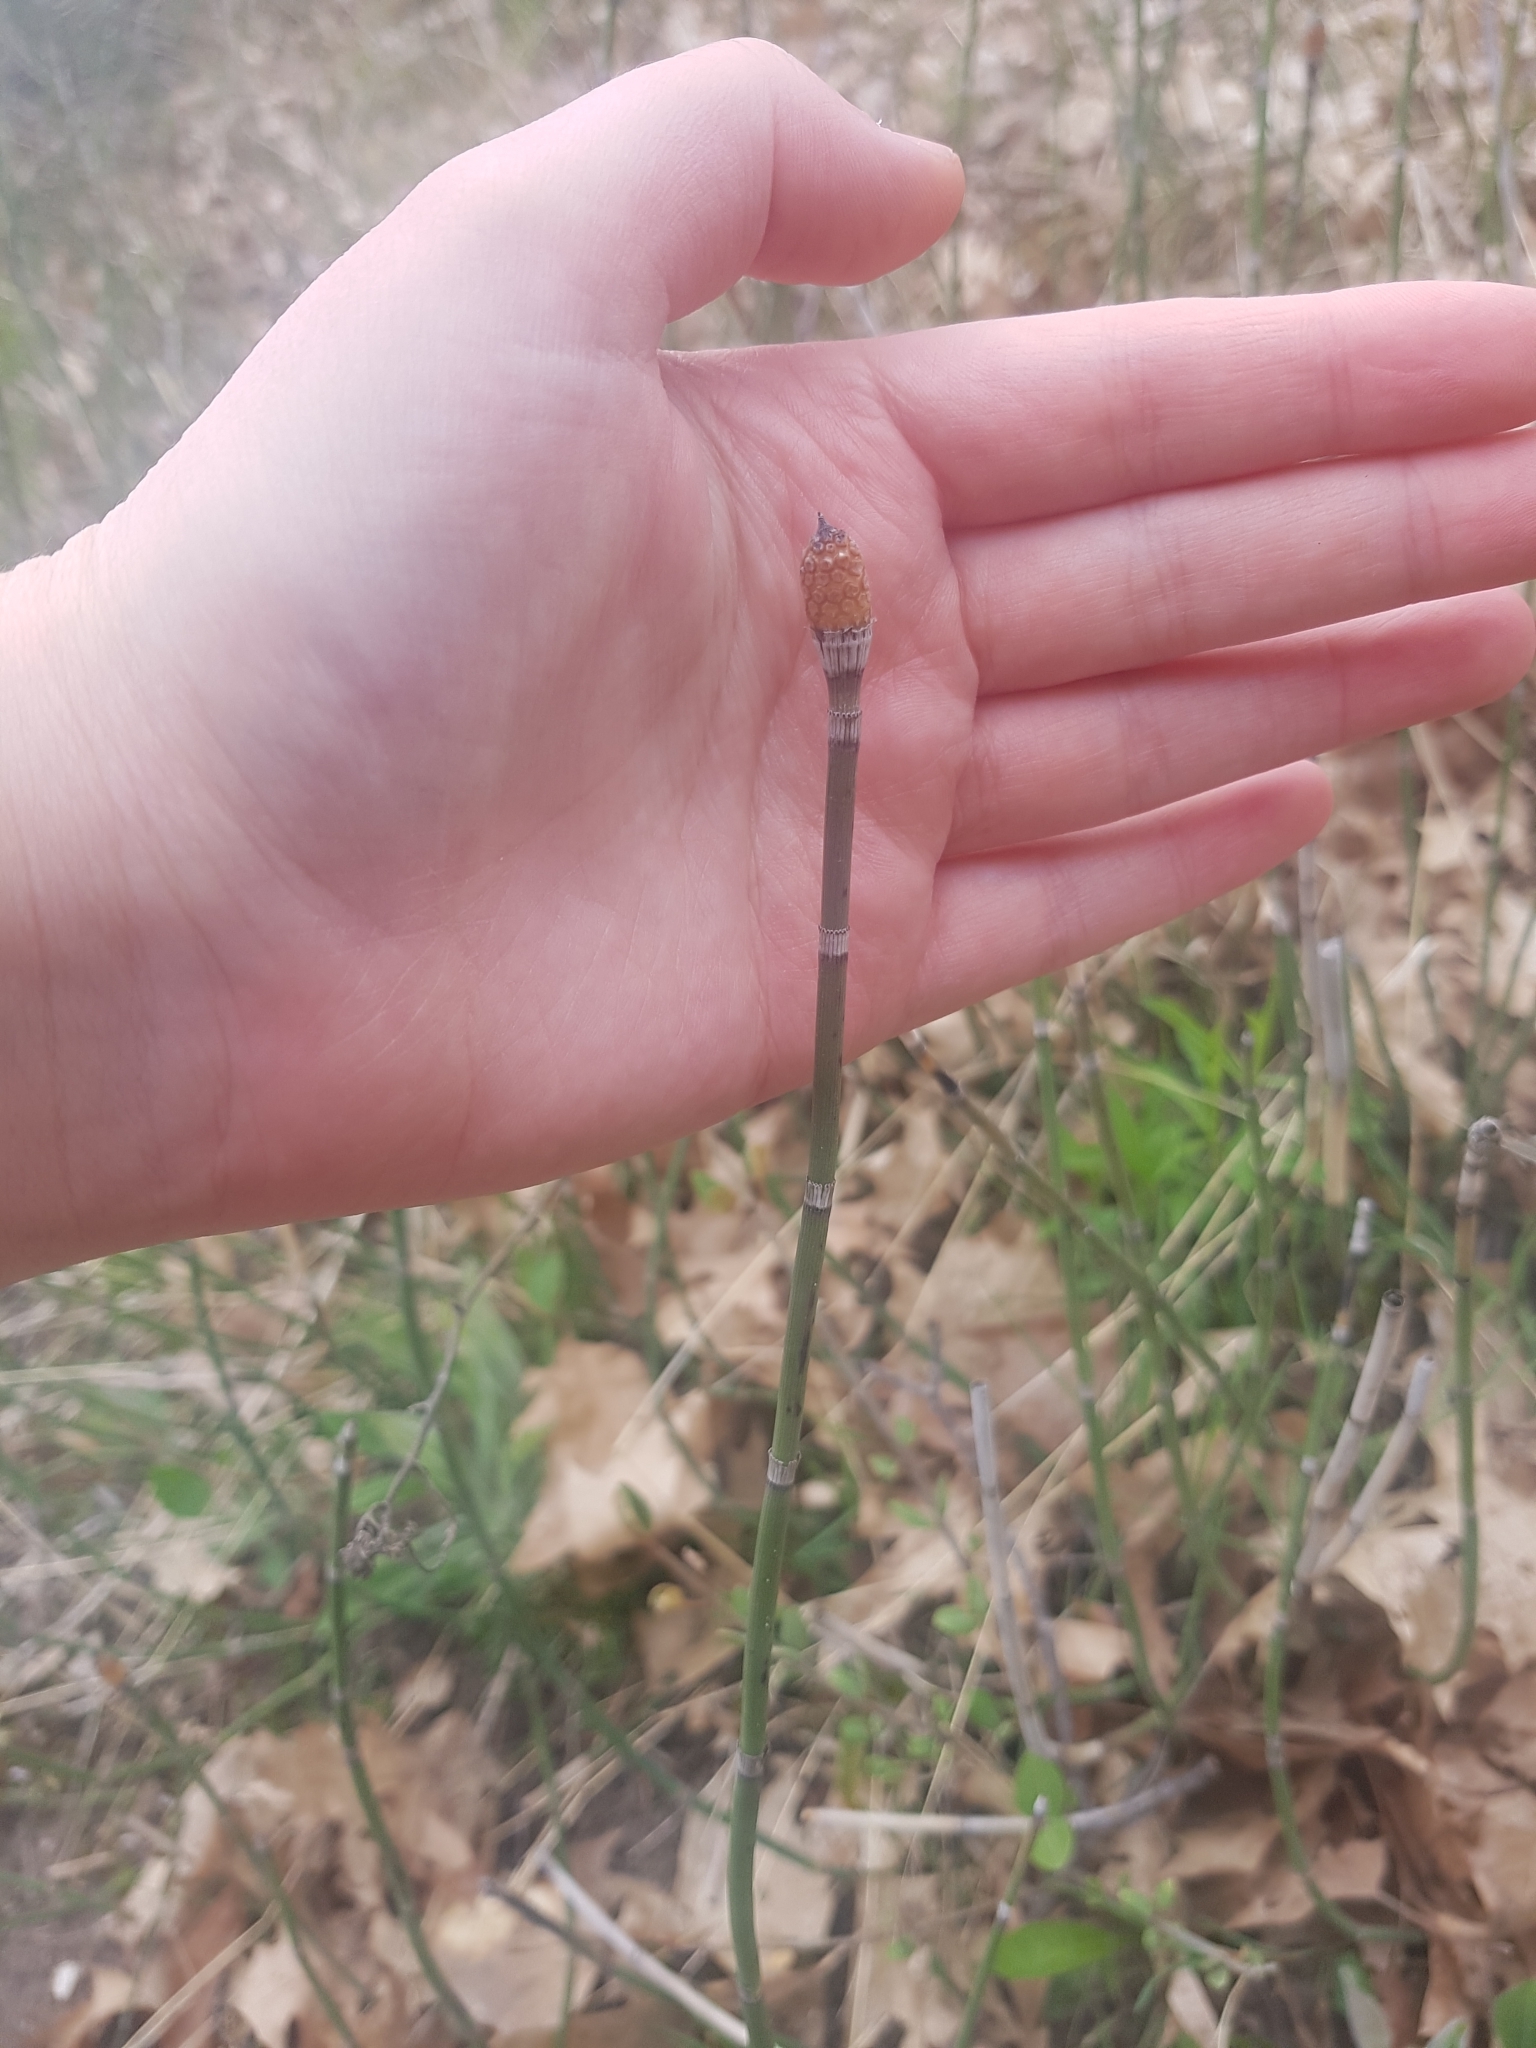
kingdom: Plantae
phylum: Tracheophyta
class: Polypodiopsida
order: Equisetales
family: Equisetaceae
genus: Equisetum
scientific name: Equisetum praealtum
